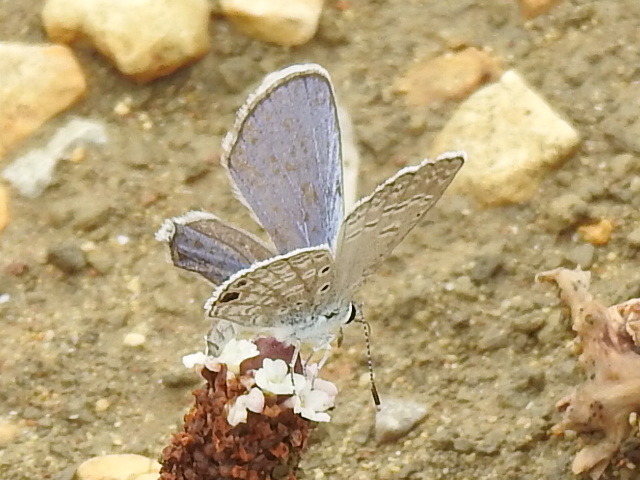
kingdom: Animalia
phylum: Arthropoda
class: Insecta
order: Lepidoptera
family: Lycaenidae
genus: Hemiargus
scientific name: Hemiargus ceraunus
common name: Ceraunus blue
